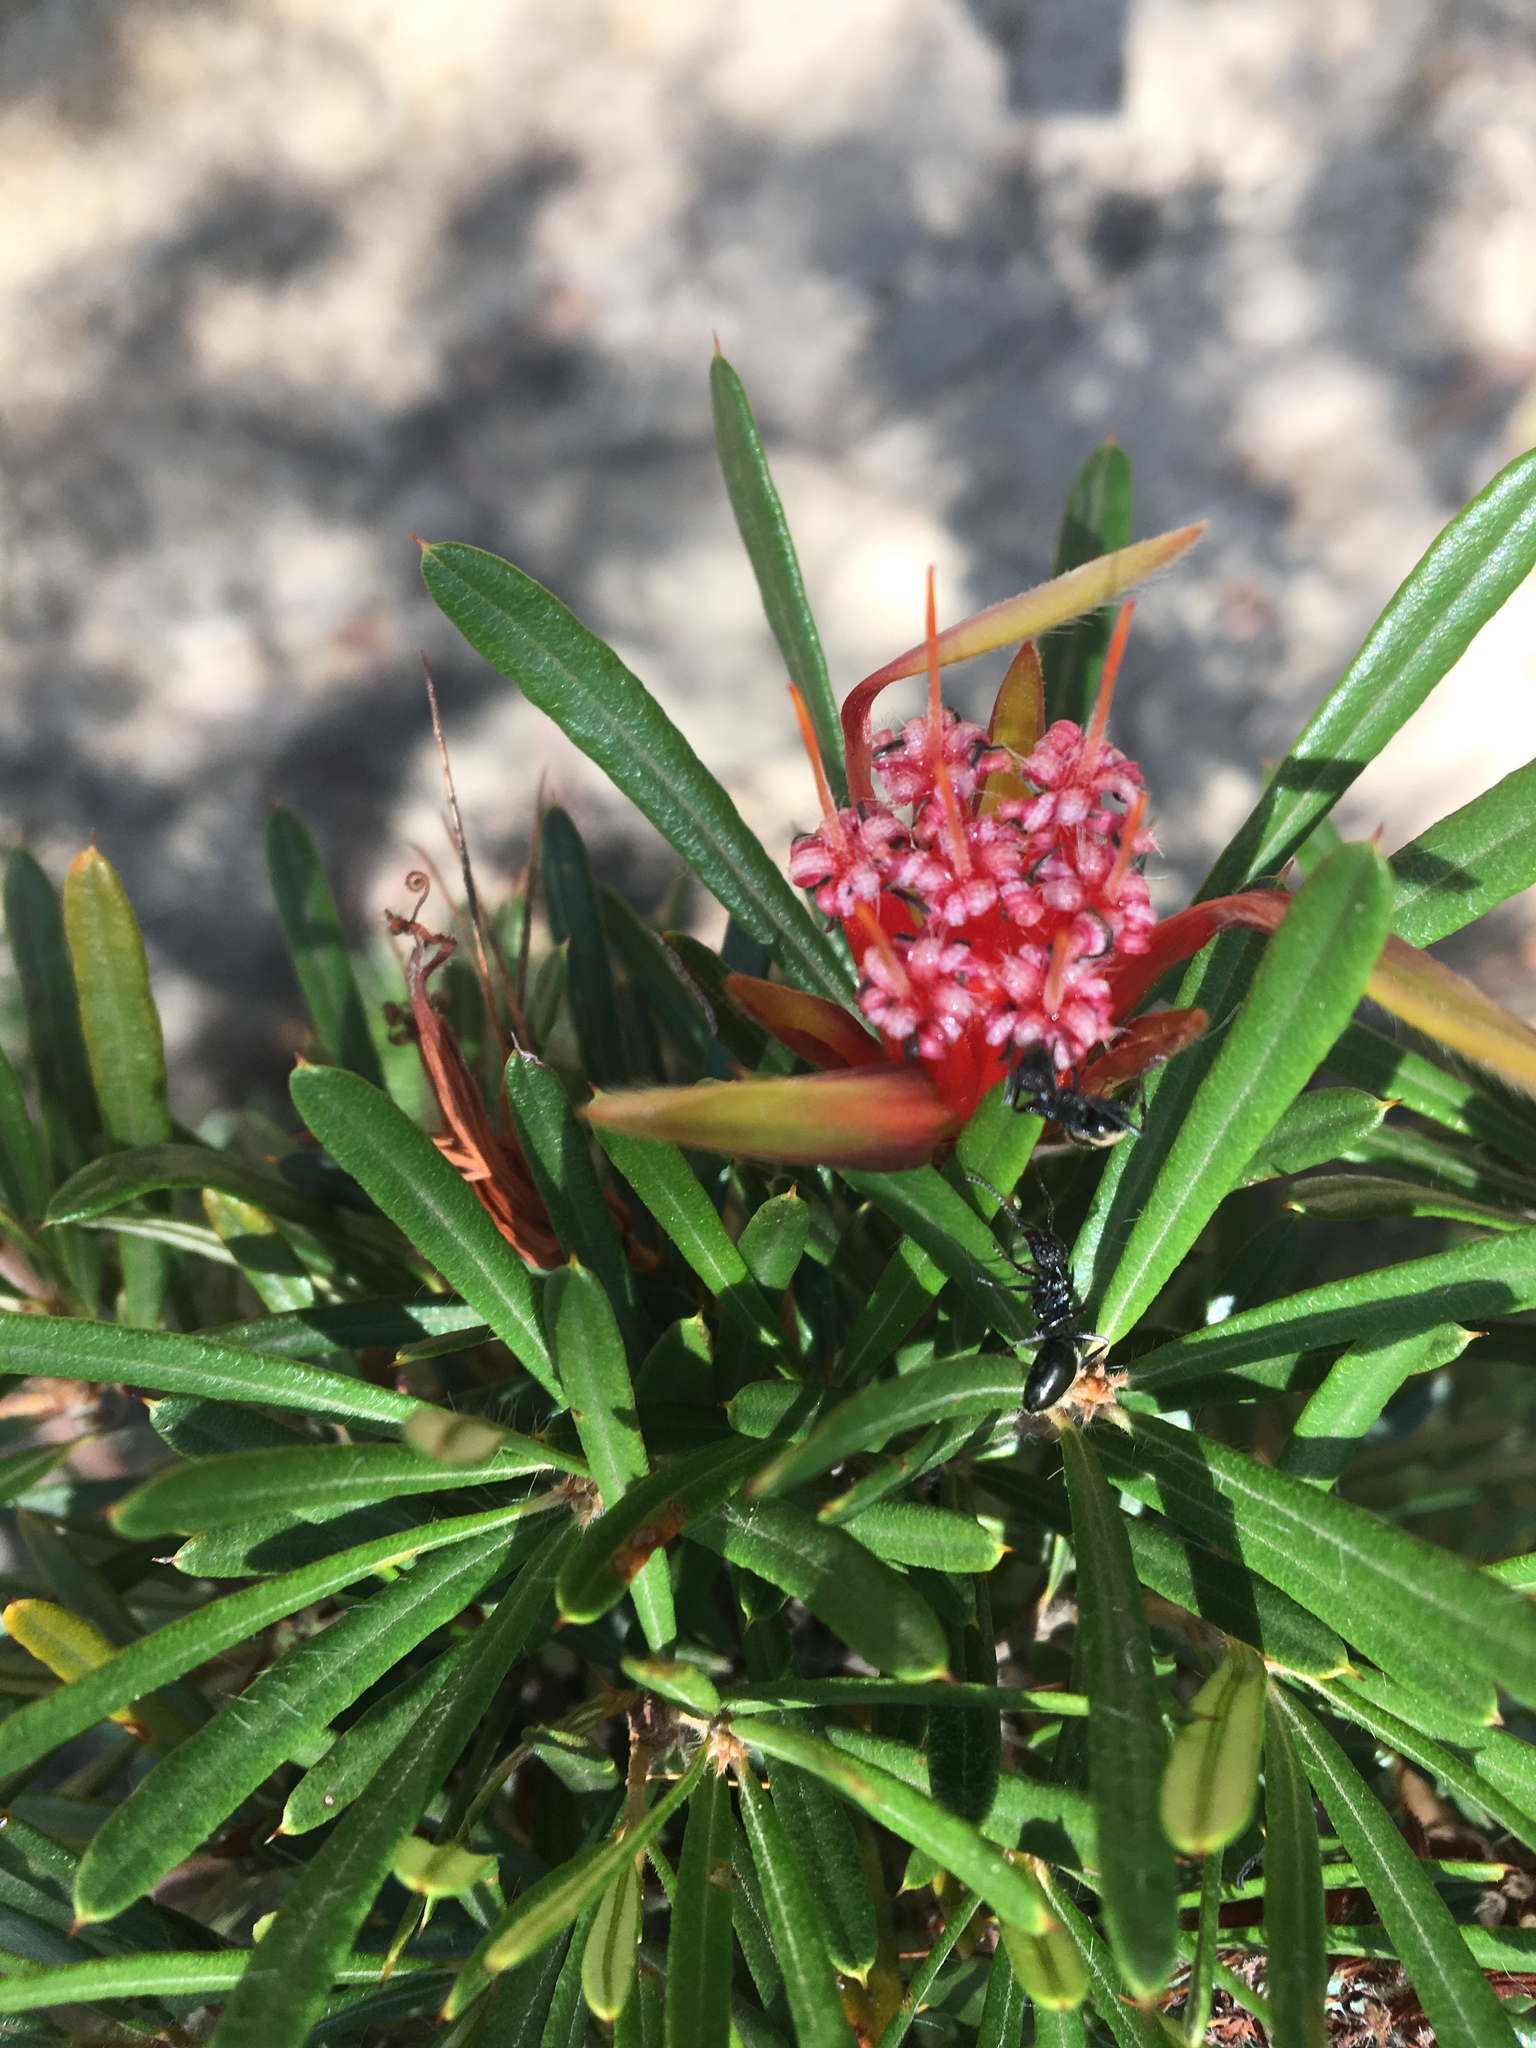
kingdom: Plantae
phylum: Tracheophyta
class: Magnoliopsida
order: Proteales
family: Proteaceae
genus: Lambertia
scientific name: Lambertia formosa
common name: Mountain-devil
